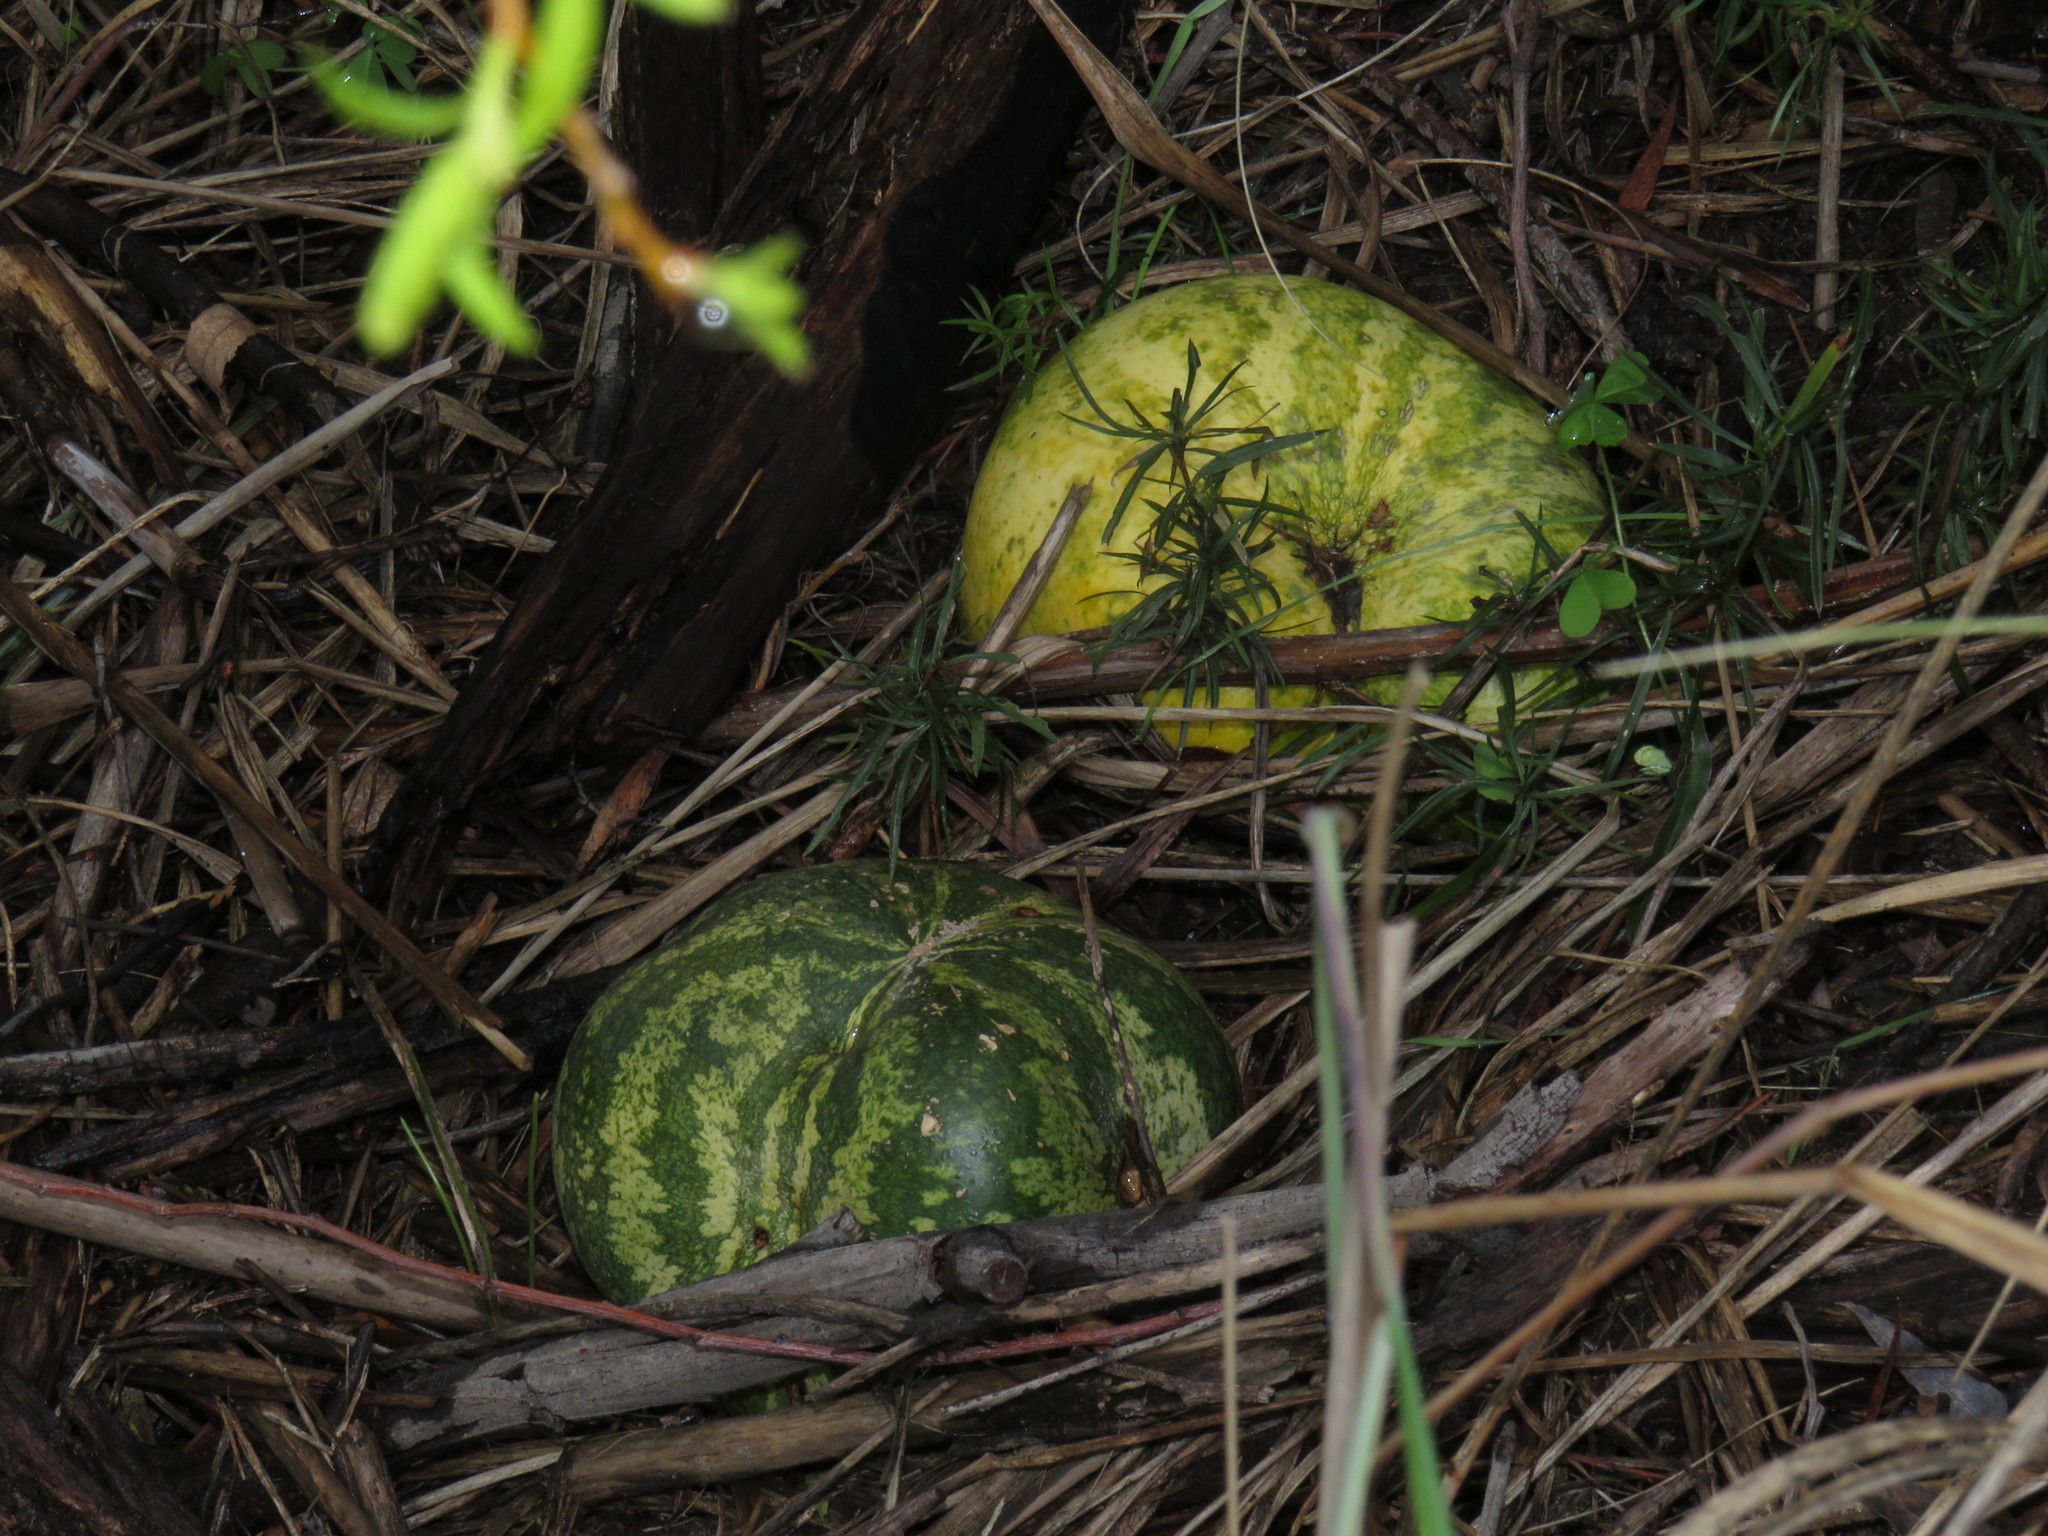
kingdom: Plantae
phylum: Tracheophyta
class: Magnoliopsida
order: Cucurbitales
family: Cucurbitaceae
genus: Citrullus
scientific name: Citrullus amarus
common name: Fodder-melon
